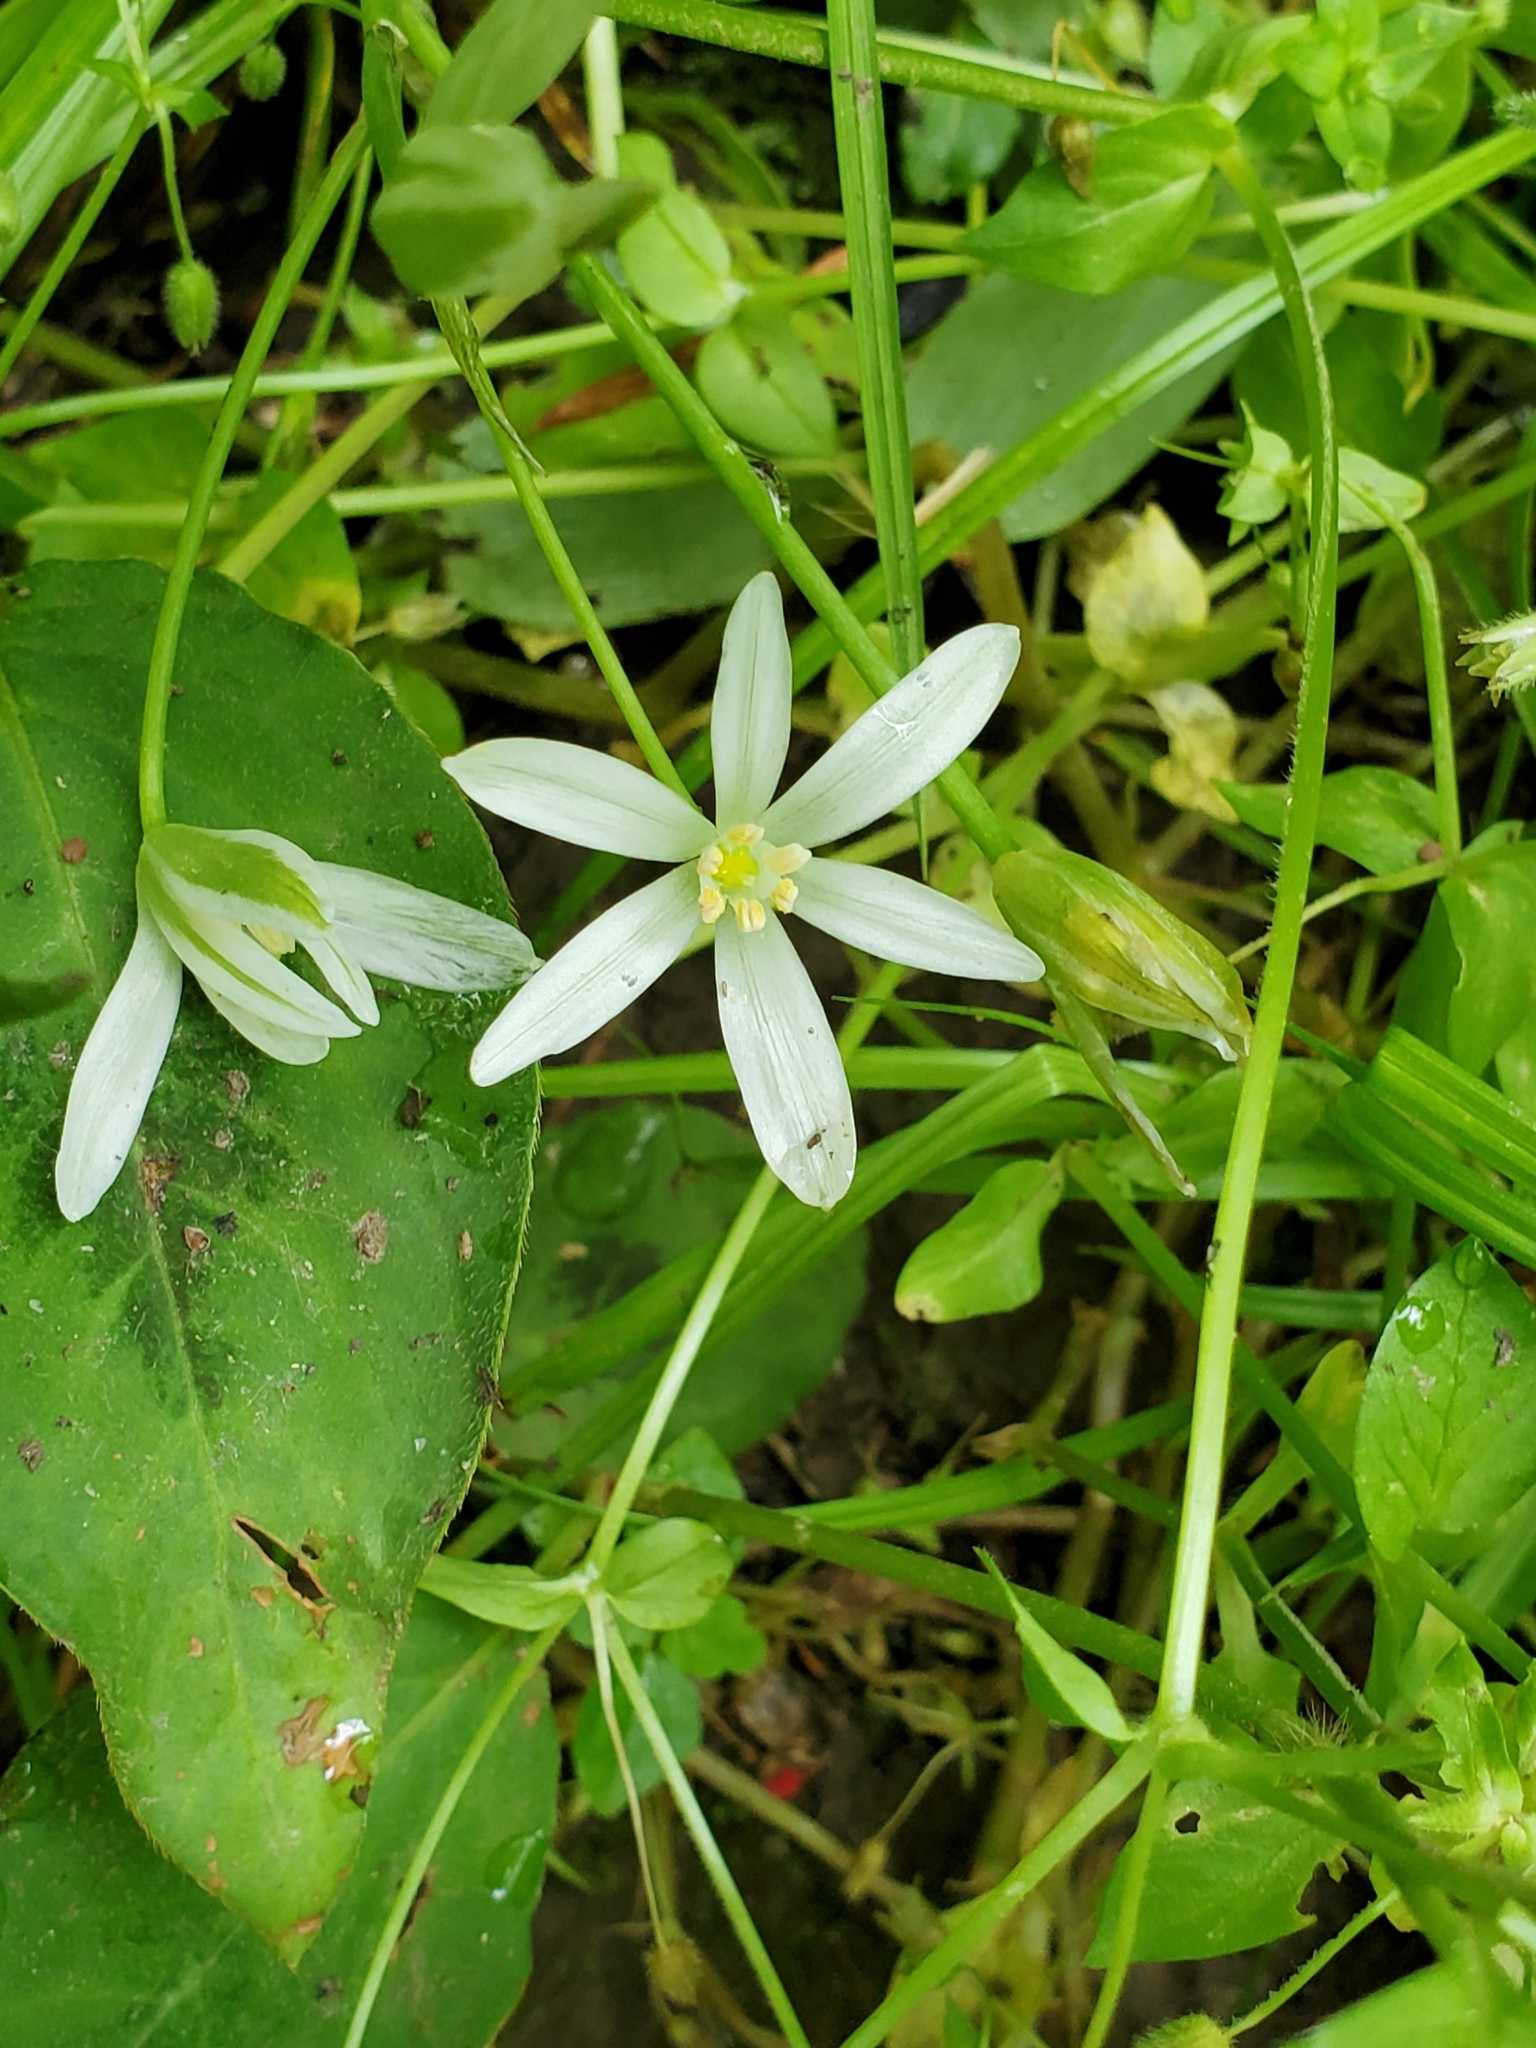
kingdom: Plantae
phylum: Tracheophyta
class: Liliopsida
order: Asparagales
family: Asparagaceae
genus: Ornithogalum
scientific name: Ornithogalum umbellatum
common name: Garden star-of-bethlehem
